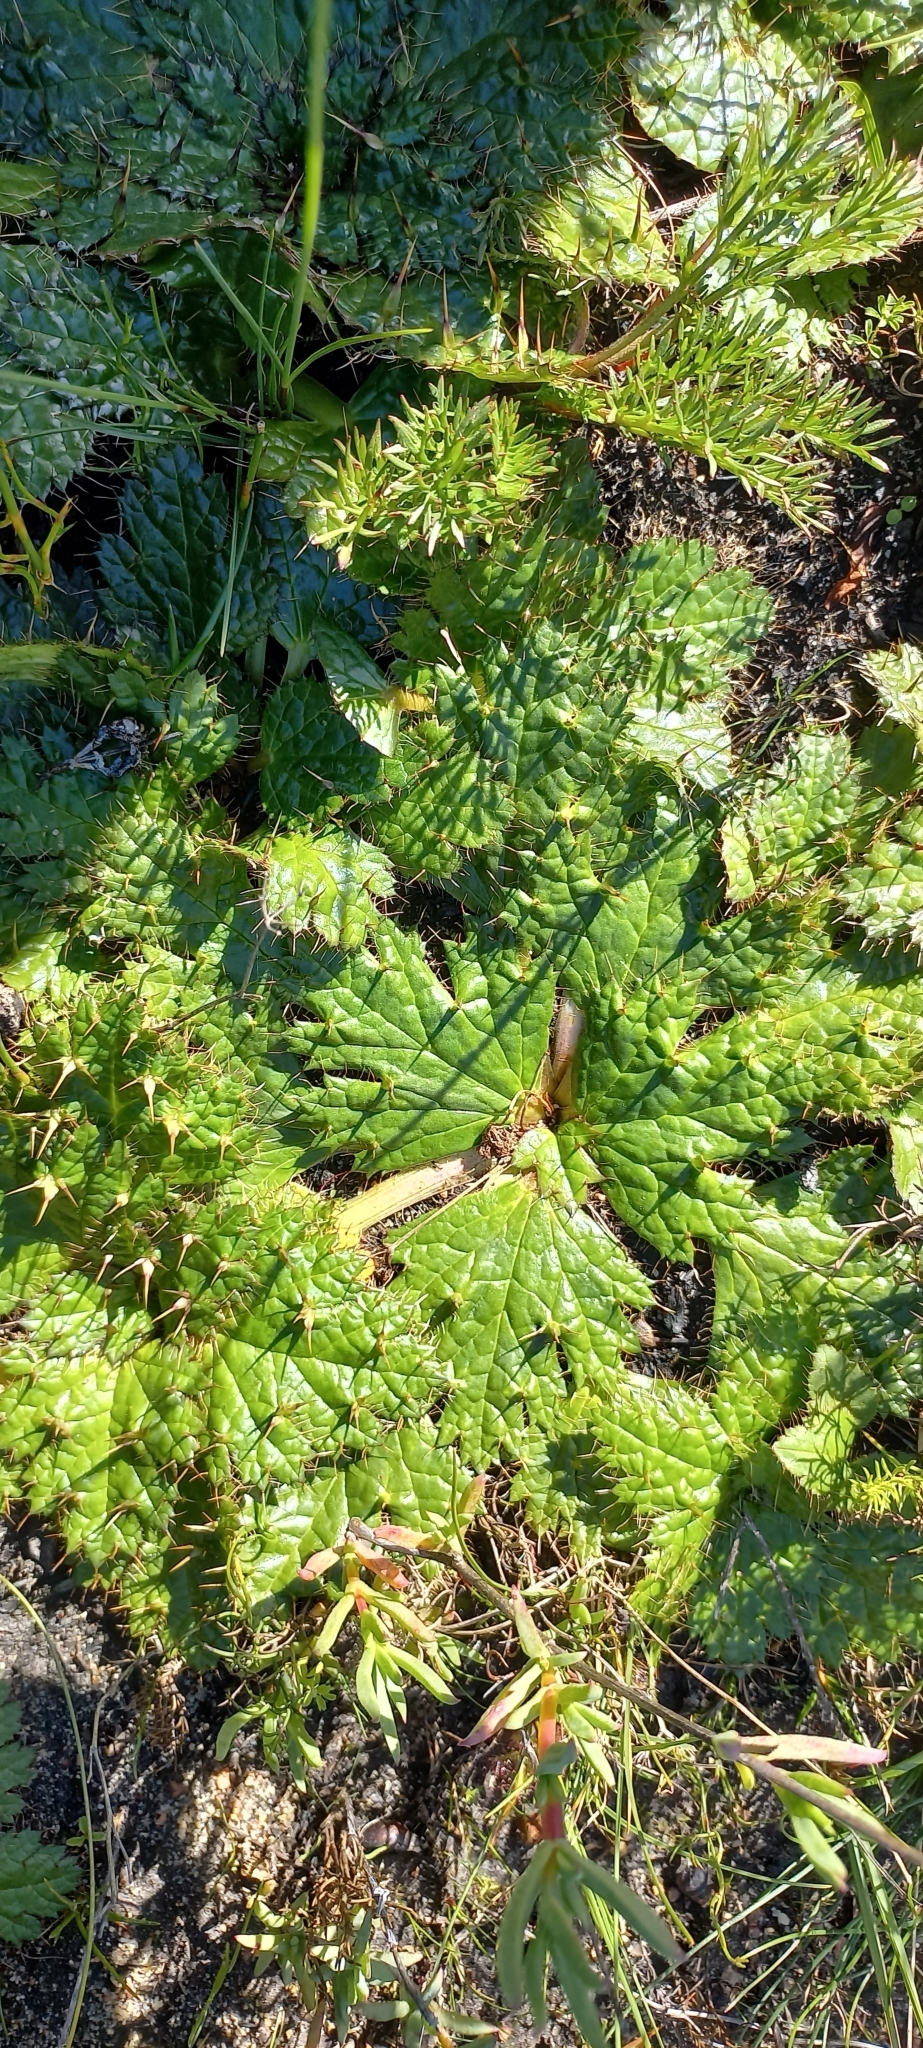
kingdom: Plantae
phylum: Tracheophyta
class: Magnoliopsida
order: Apiales
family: Apiaceae
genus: Arctopus
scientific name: Arctopus echinatus
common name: Platdoring
